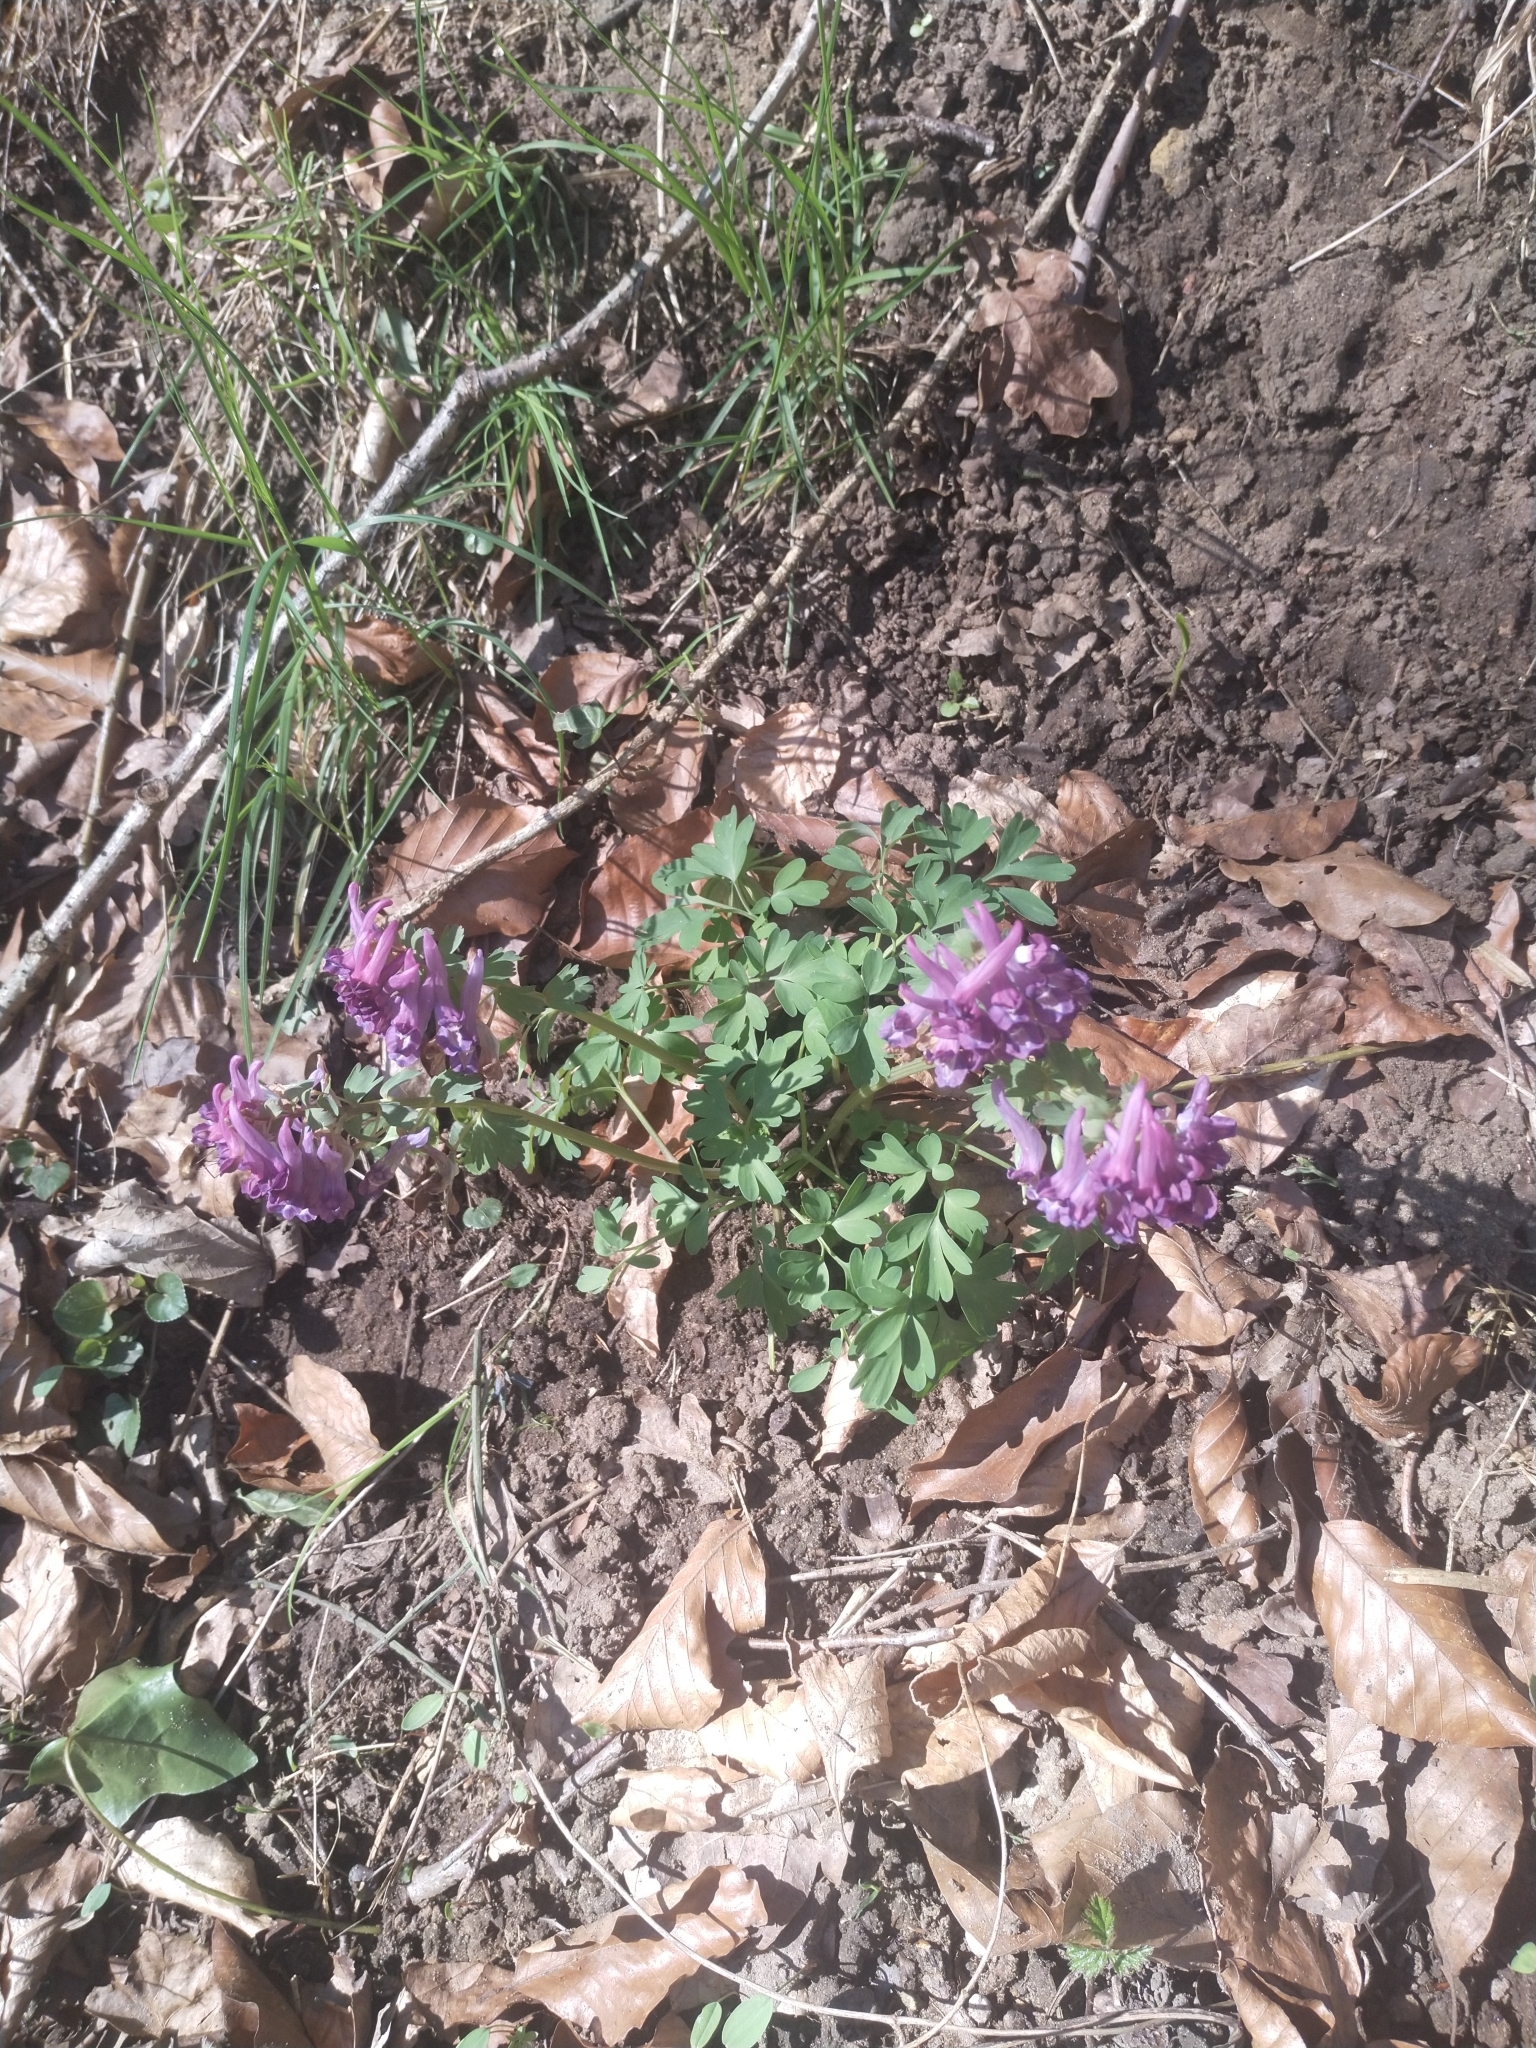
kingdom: Plantae
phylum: Tracheophyta
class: Magnoliopsida
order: Ranunculales
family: Papaveraceae
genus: Corydalis
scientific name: Corydalis solida
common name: Bird-in-a-bush
